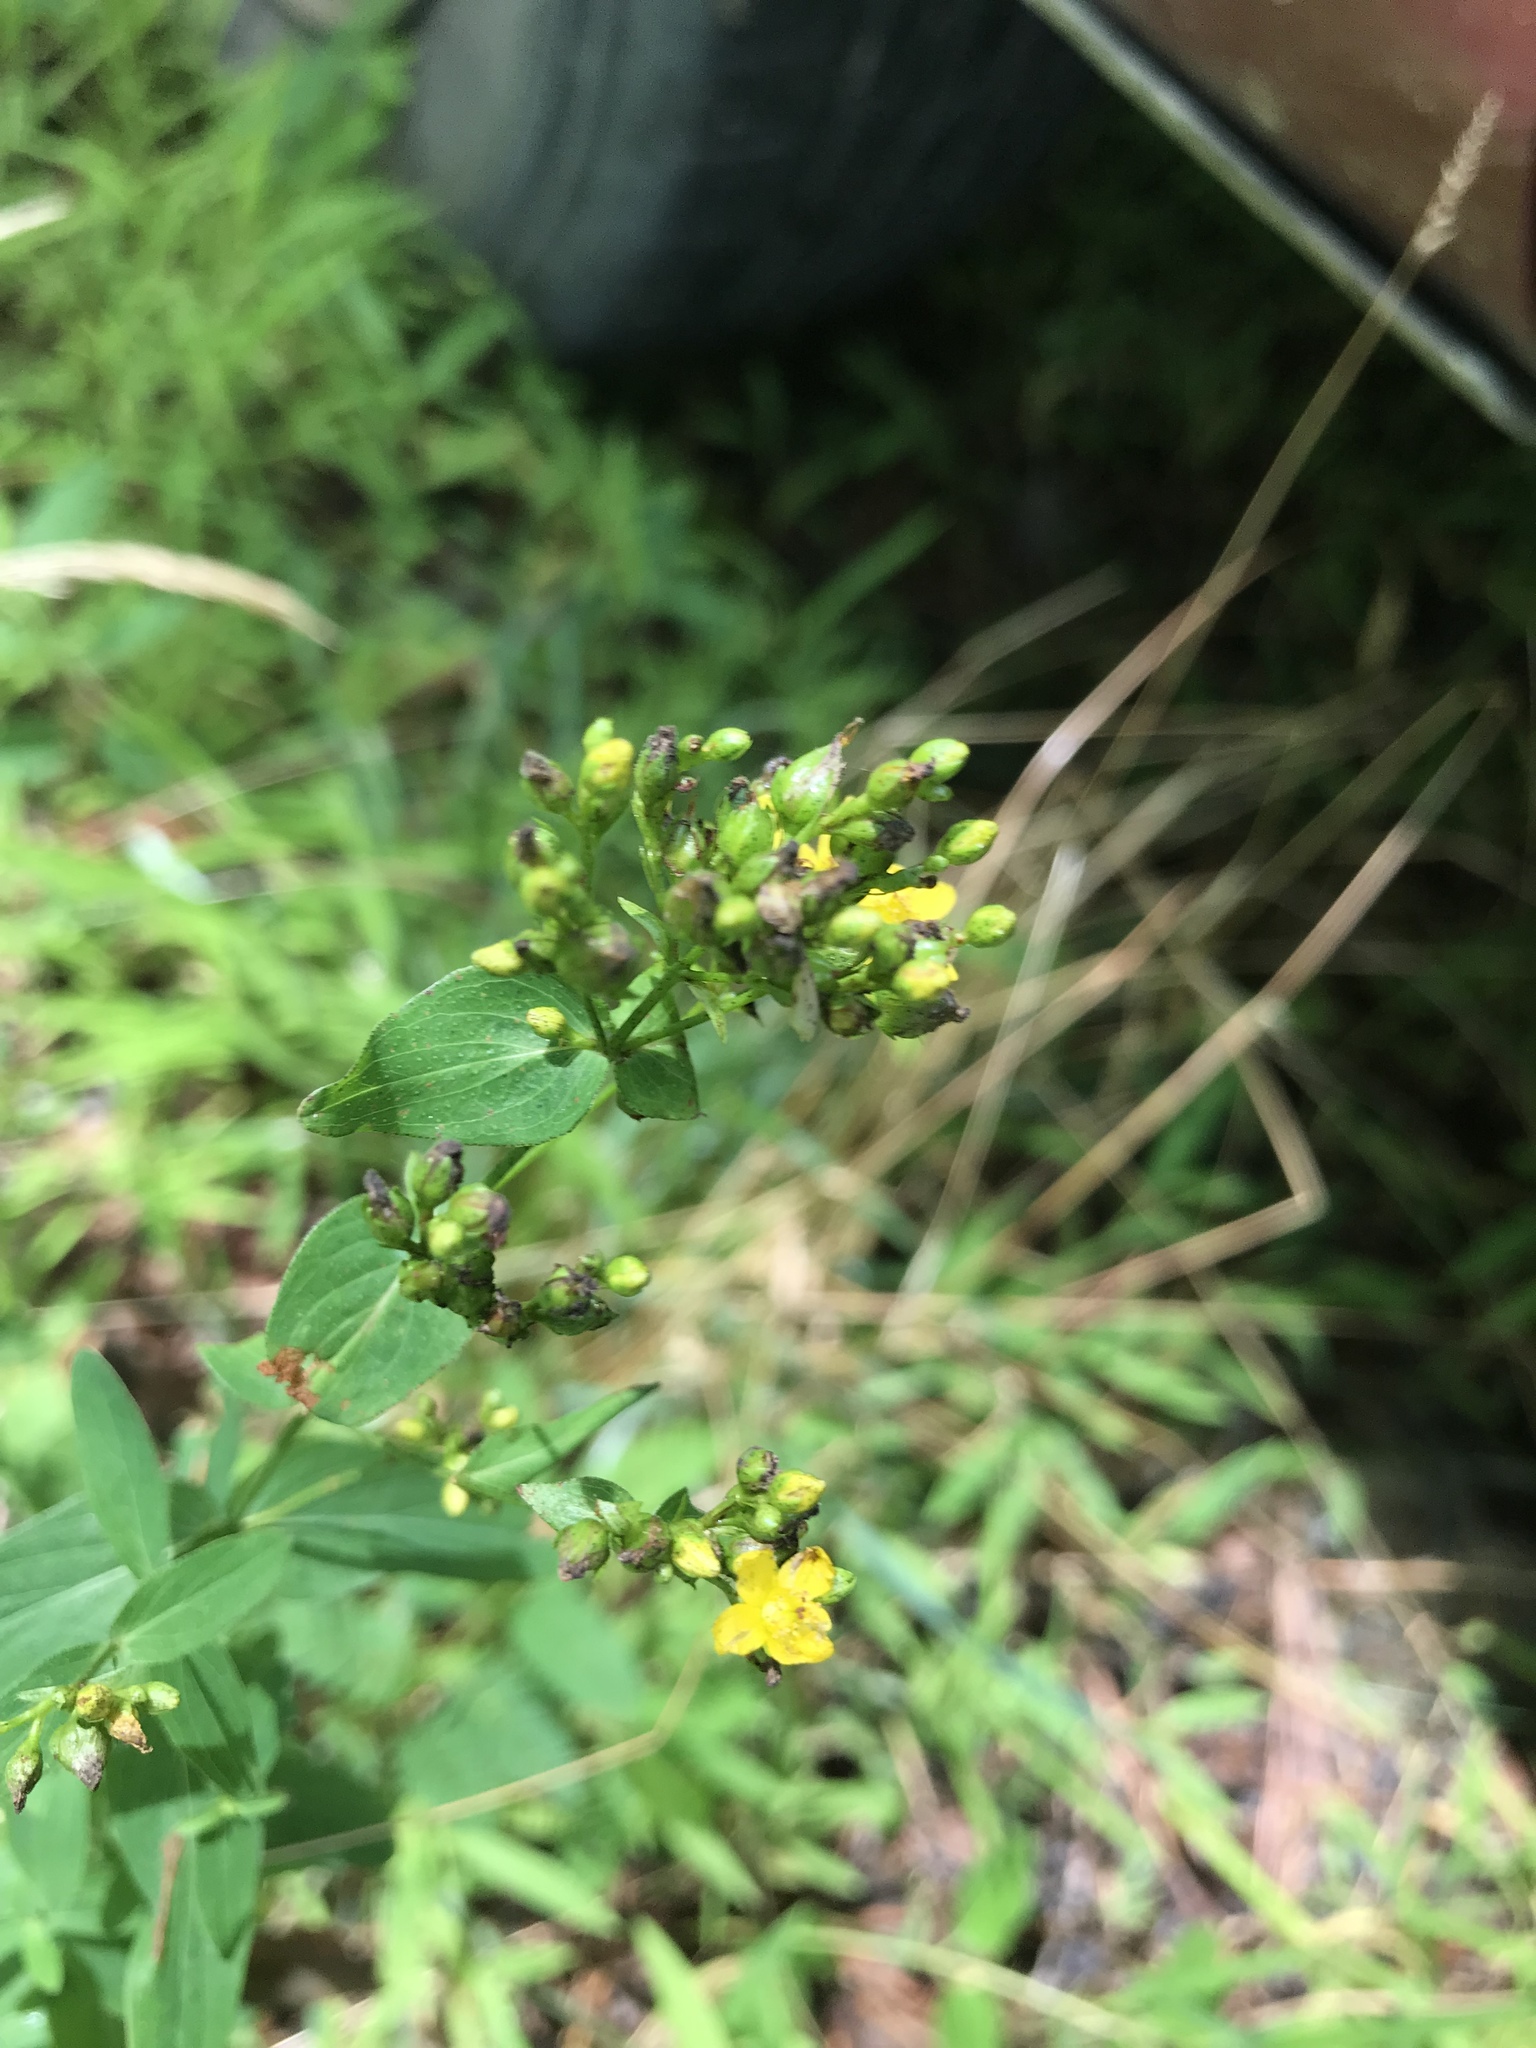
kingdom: Plantae
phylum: Tracheophyta
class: Magnoliopsida
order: Malpighiales
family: Hypericaceae
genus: Hypericum
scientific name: Hypericum punctatum
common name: Spotted st. john's-wort
